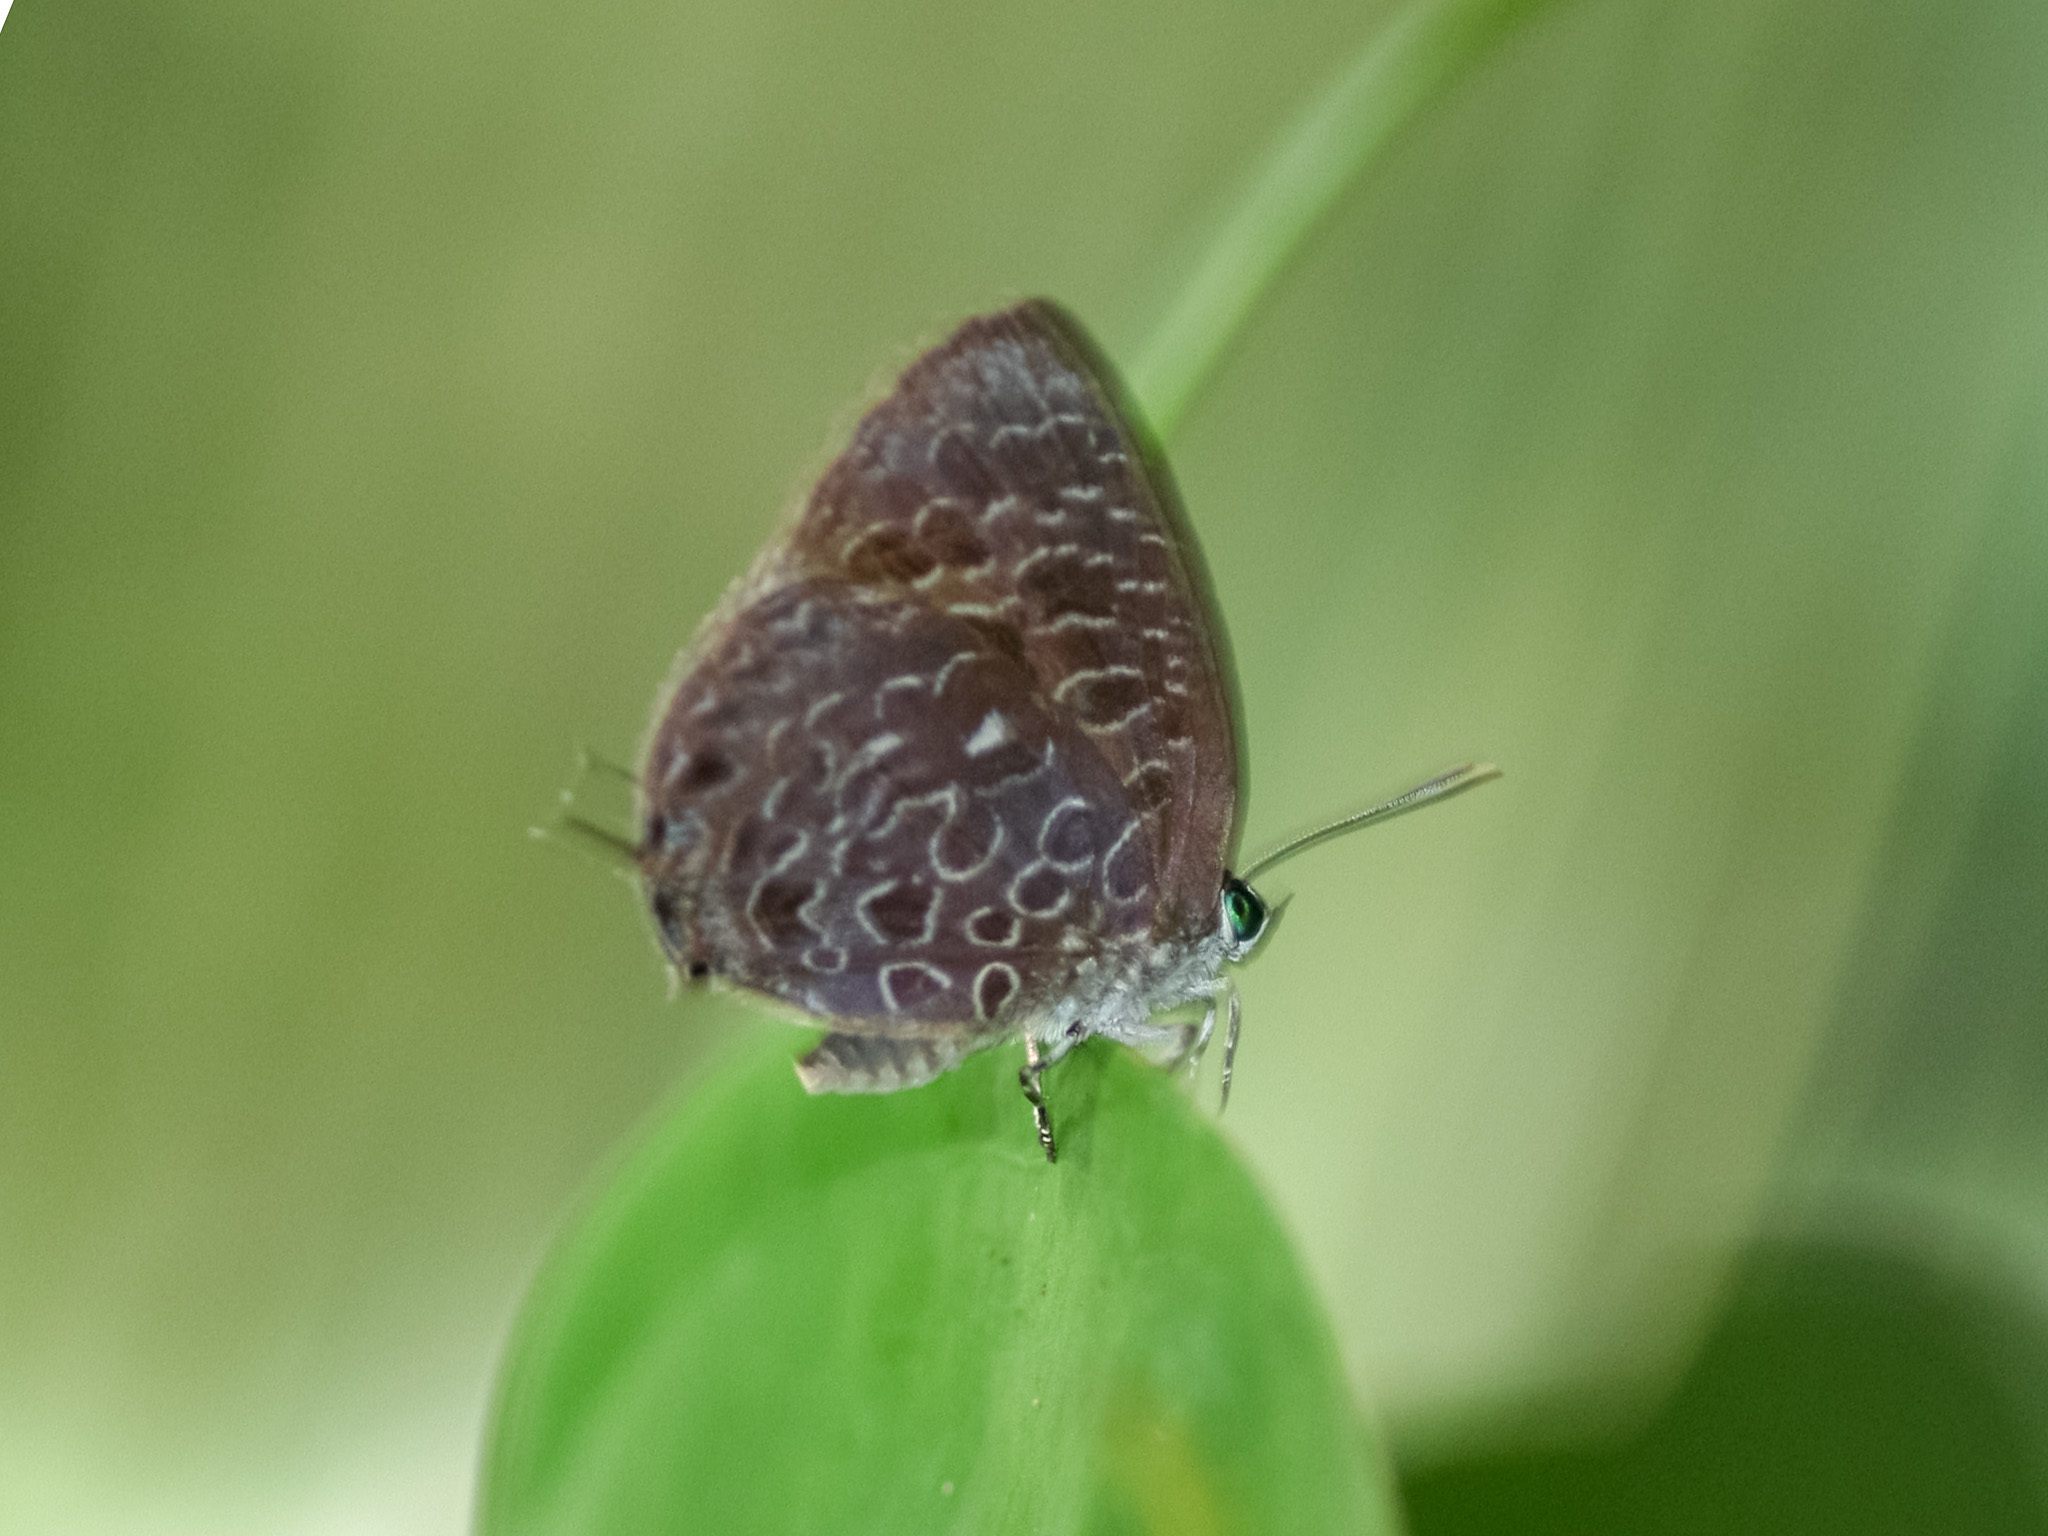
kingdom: Animalia
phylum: Arthropoda
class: Insecta
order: Lepidoptera
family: Lycaenidae
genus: Arhopala
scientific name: Arhopala ammon
